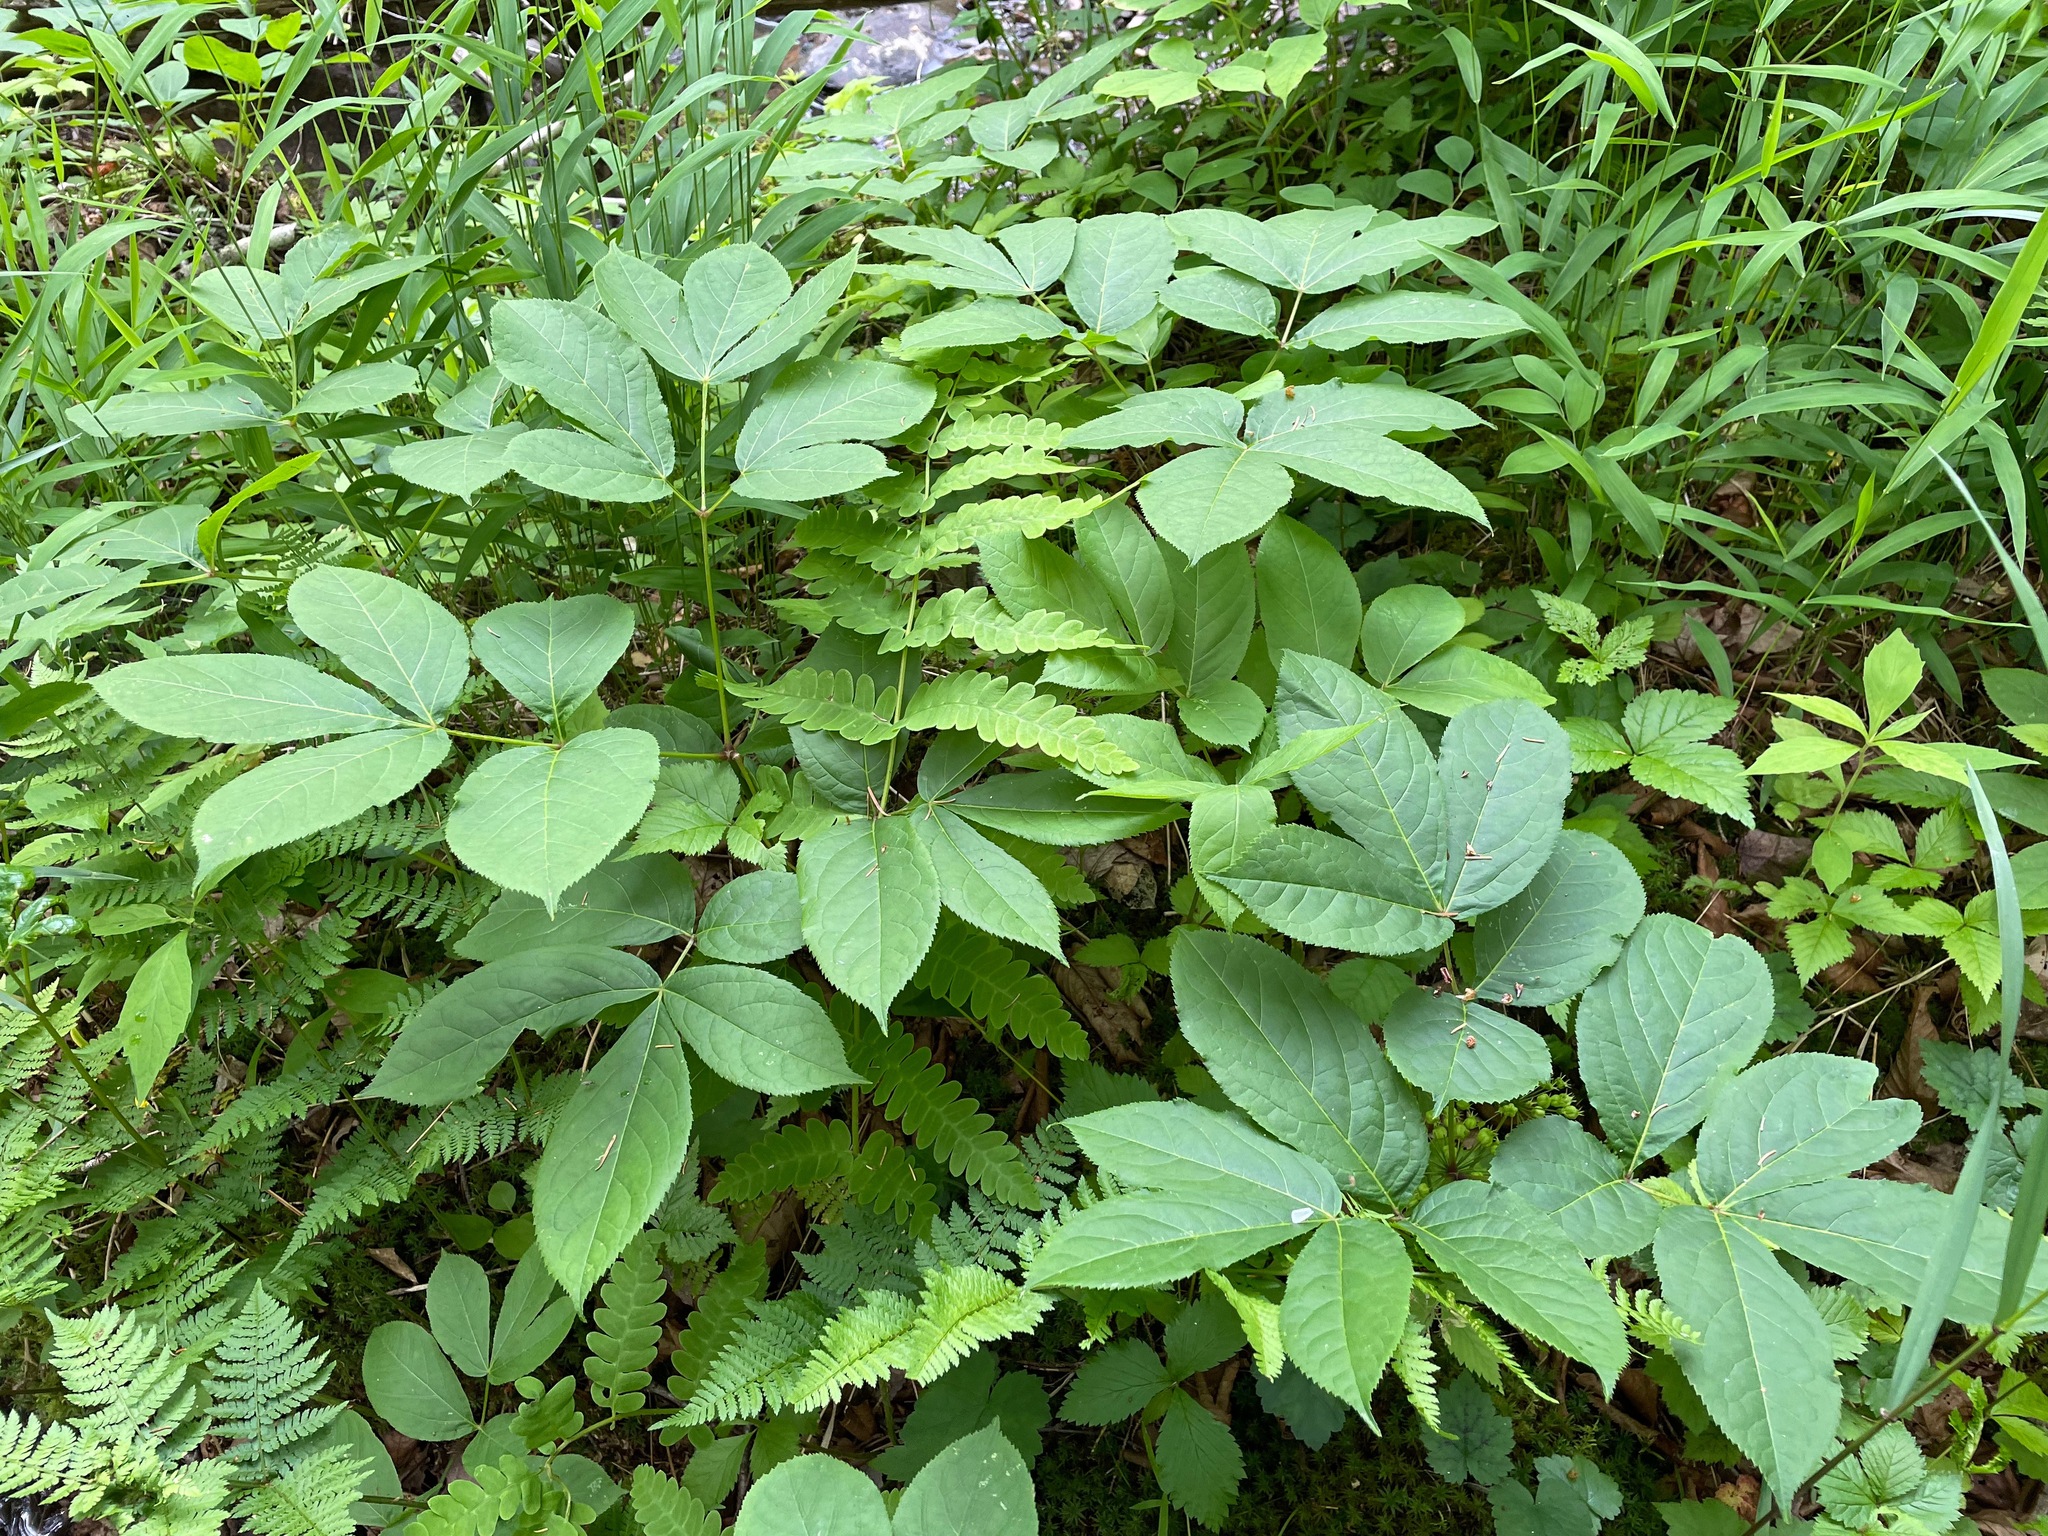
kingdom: Plantae
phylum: Tracheophyta
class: Magnoliopsida
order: Apiales
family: Araliaceae
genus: Aralia
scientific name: Aralia nudicaulis
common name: Wild sarsaparilla
